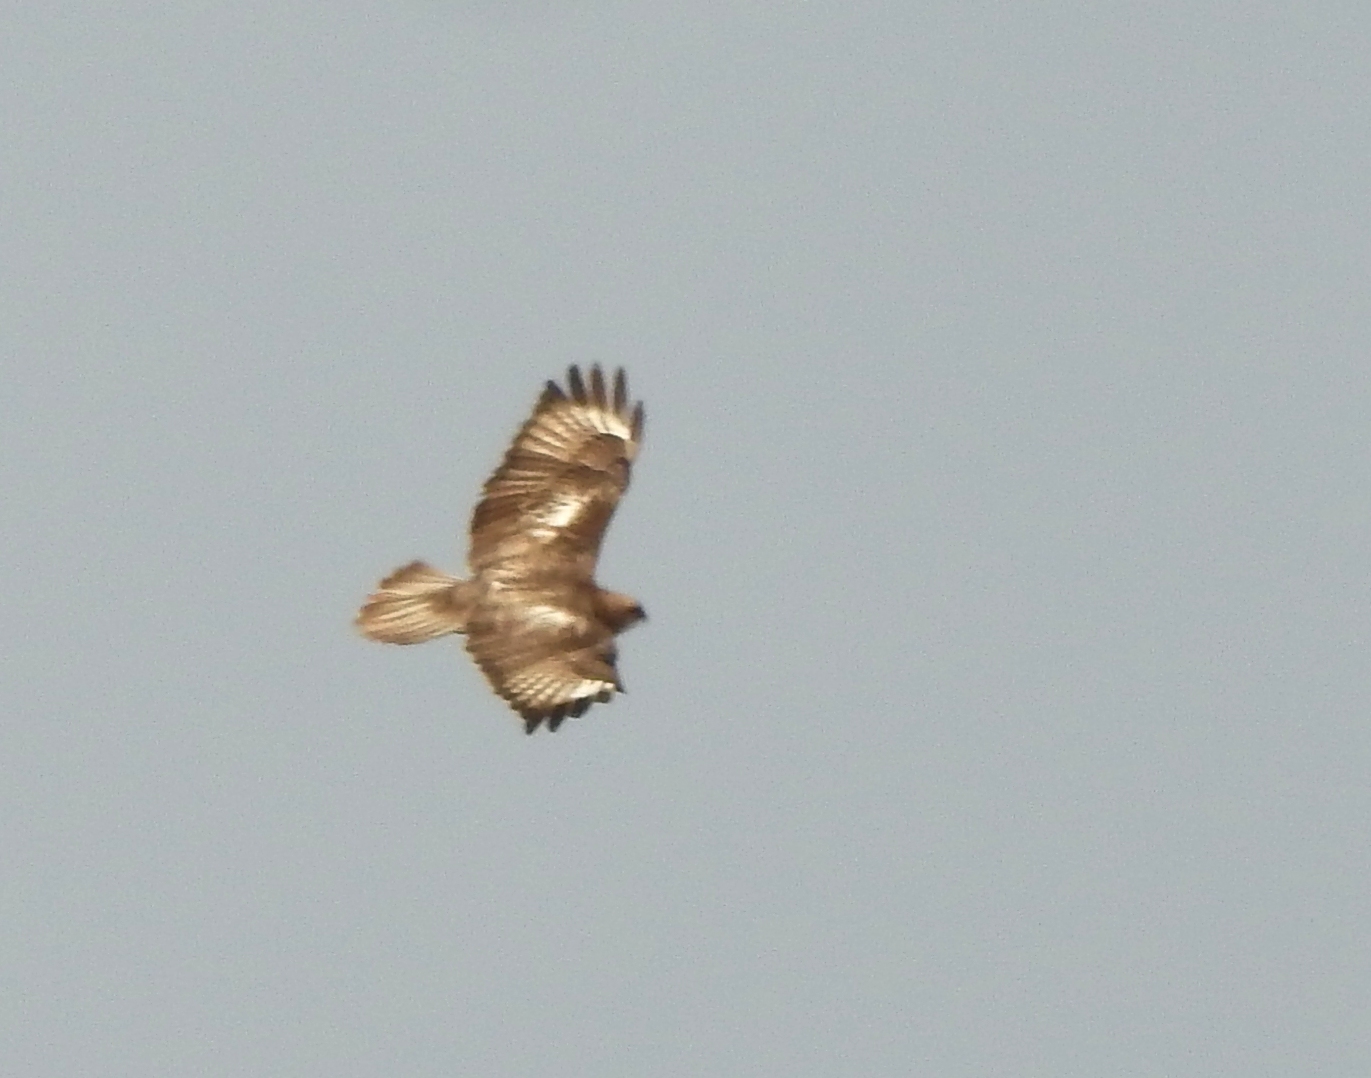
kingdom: Animalia
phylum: Chordata
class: Aves
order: Accipitriformes
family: Accipitridae
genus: Buteo
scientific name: Buteo japonicus
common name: Eastern buzzard
